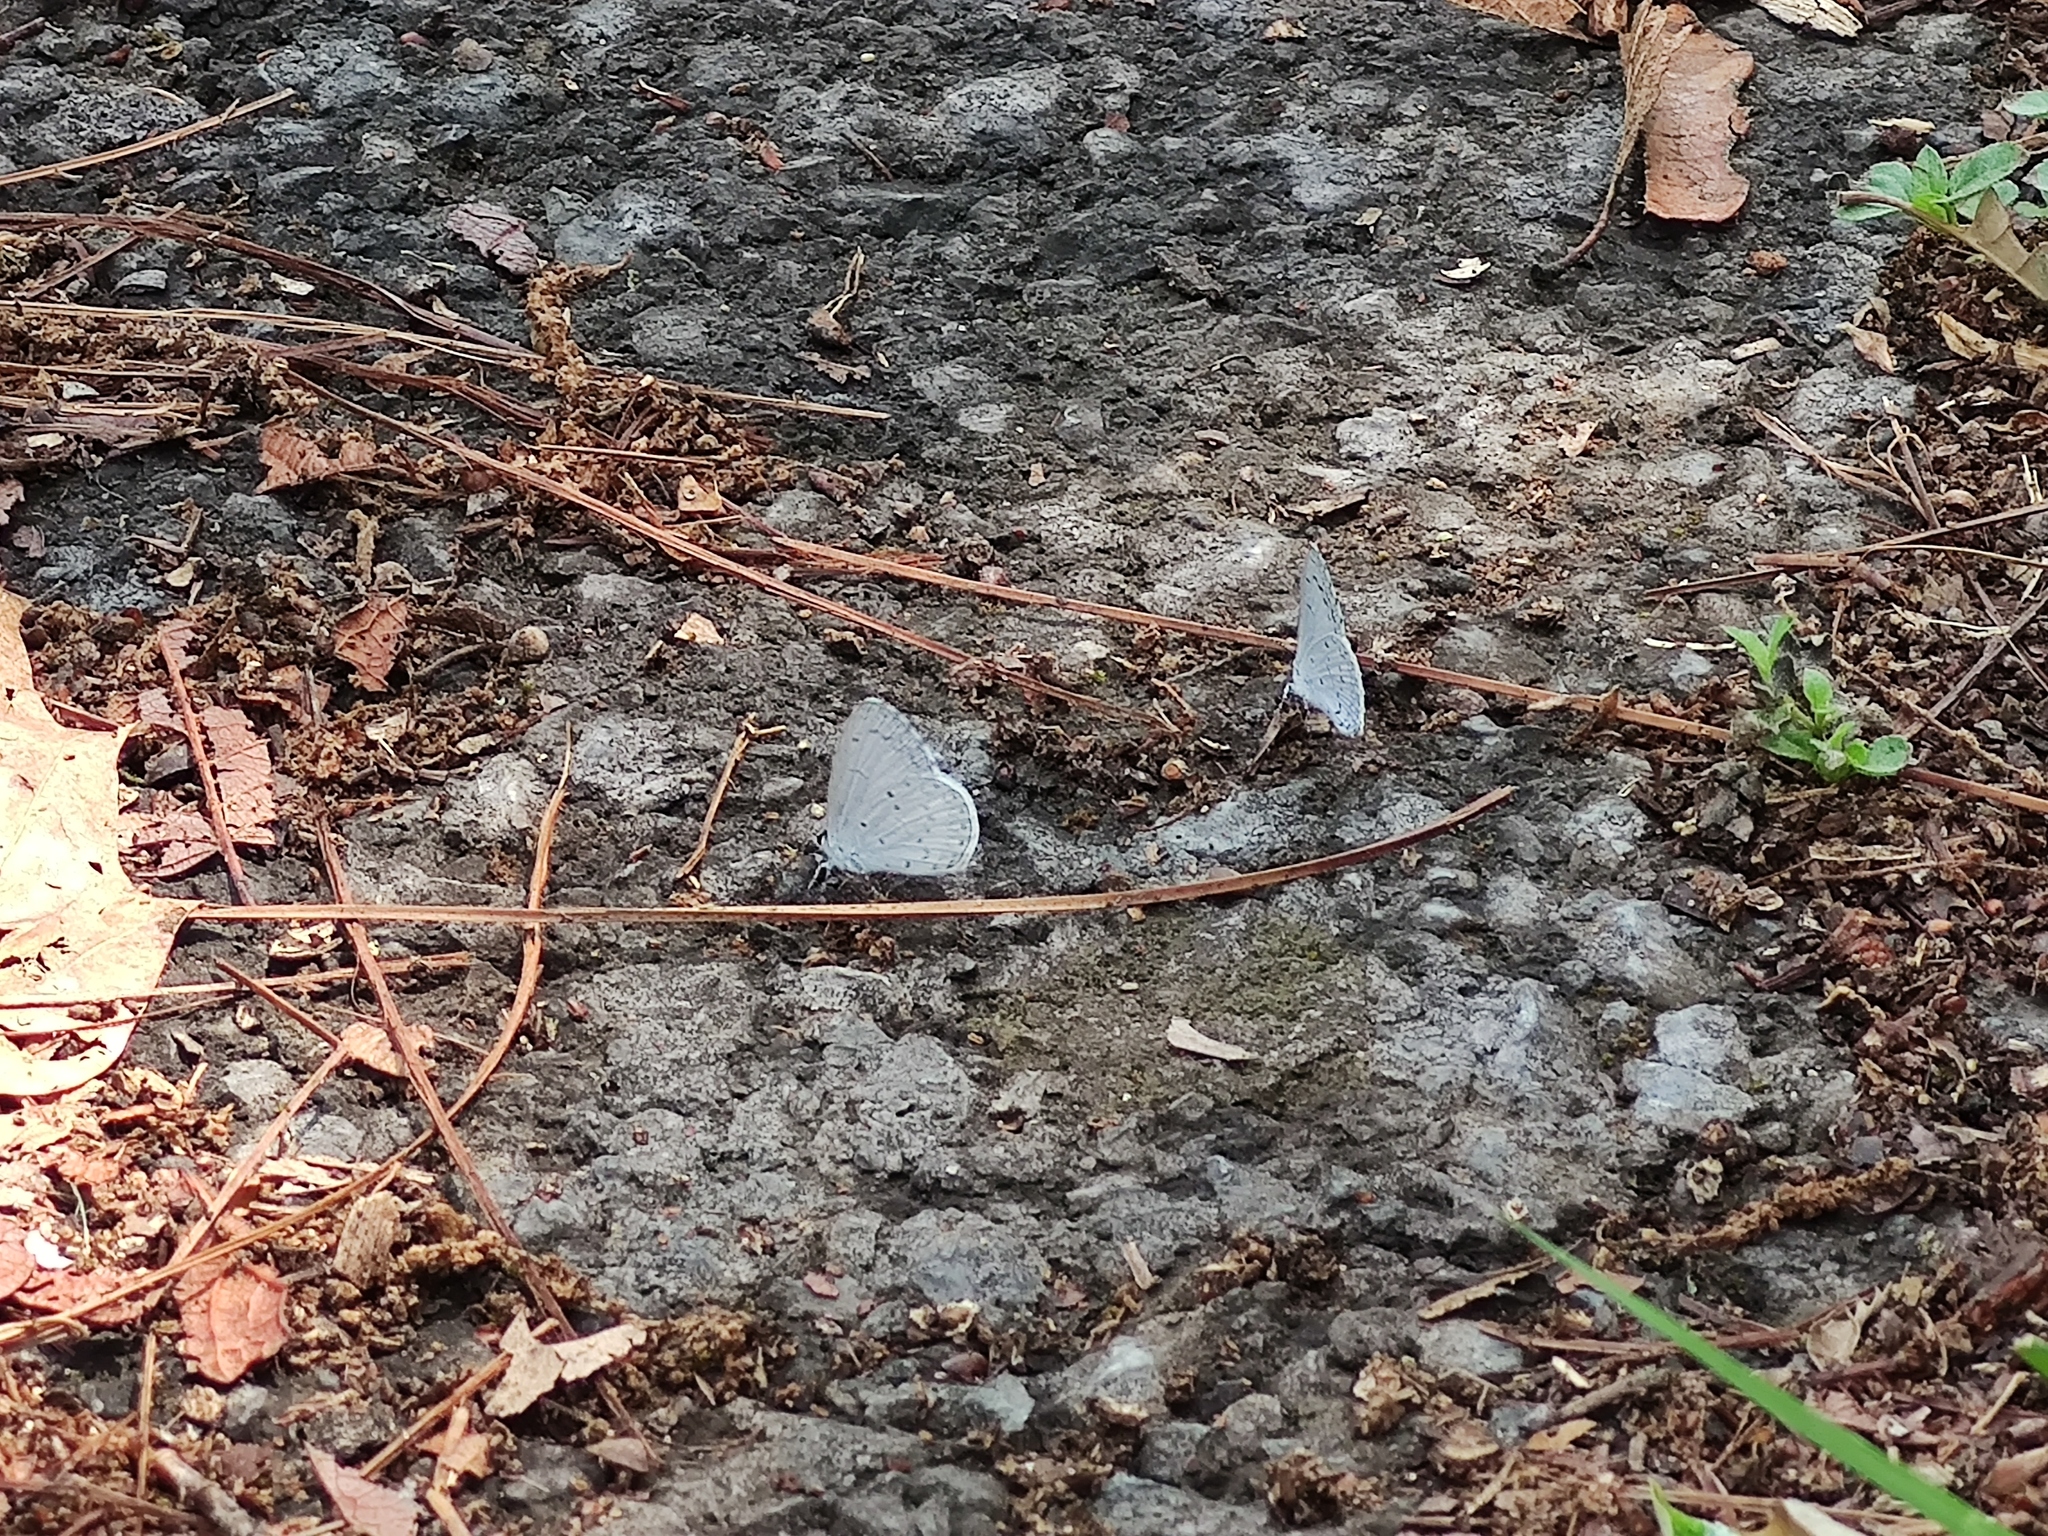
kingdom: Animalia
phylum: Arthropoda
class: Insecta
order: Lepidoptera
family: Lycaenidae
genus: Celastrina
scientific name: Celastrina ladon
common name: Spring azure
